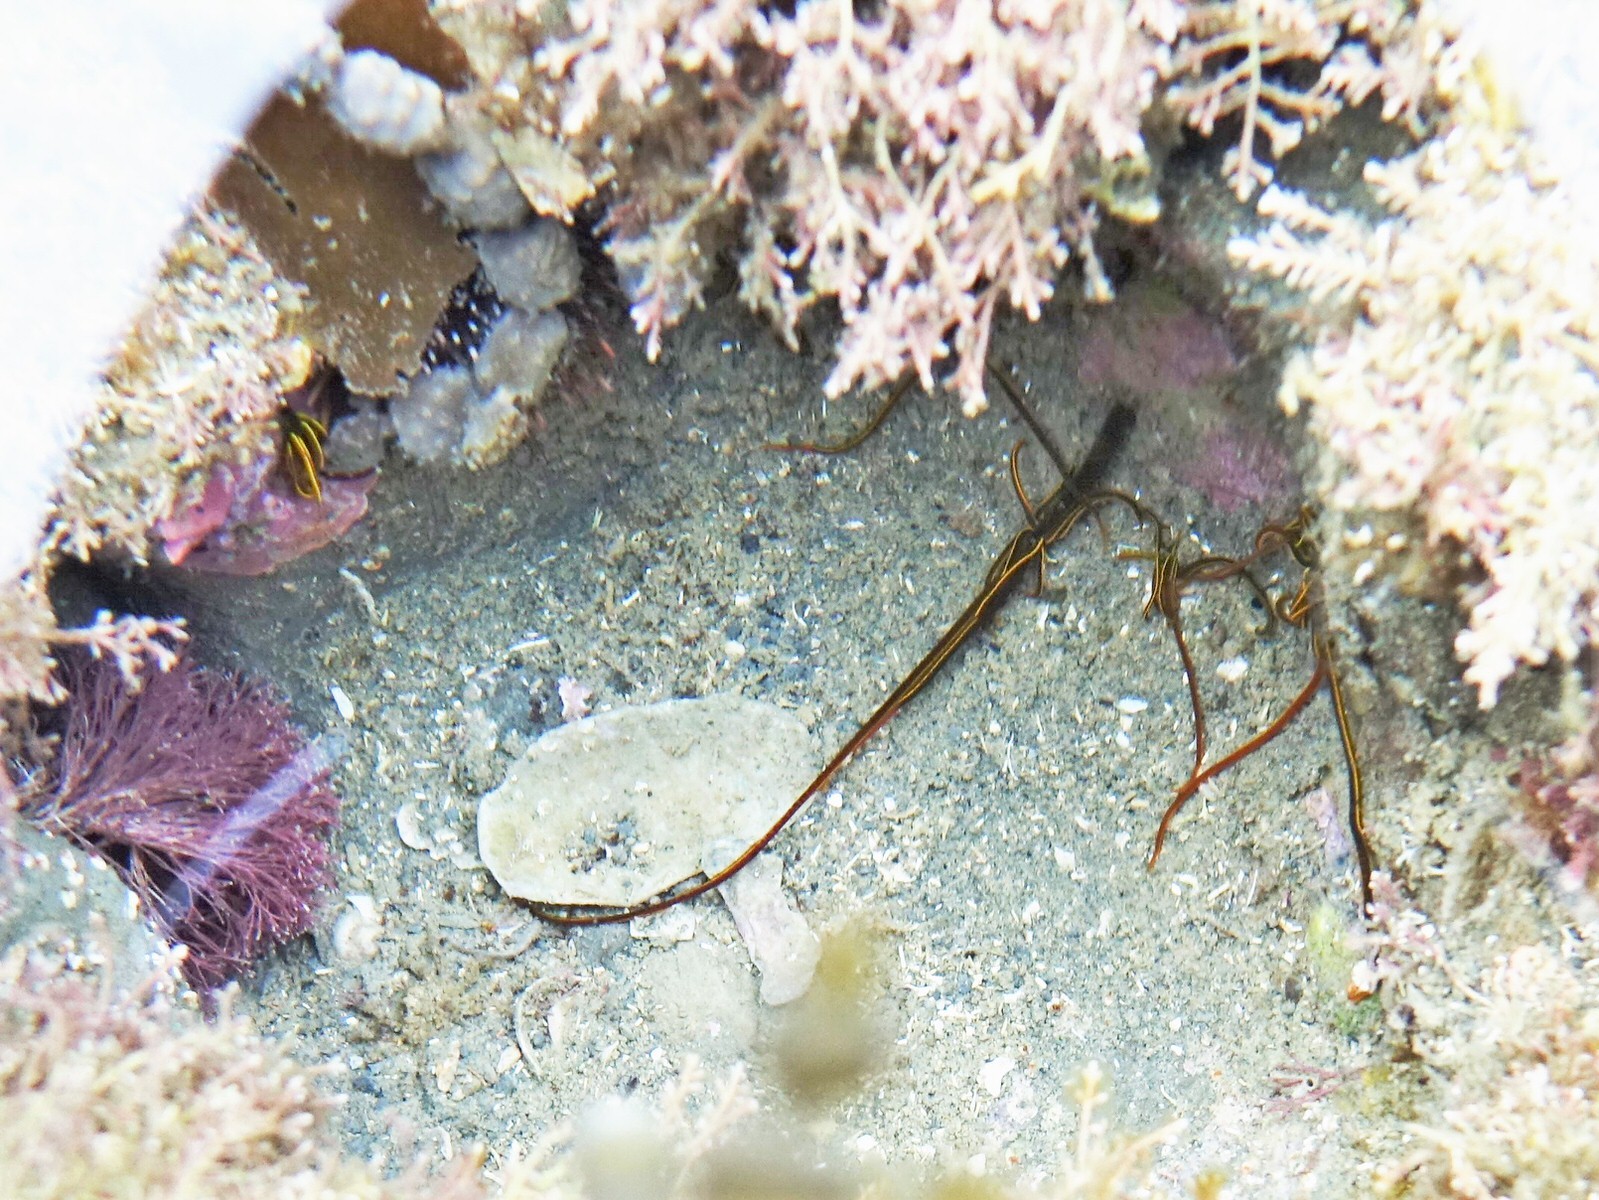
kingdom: Animalia
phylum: Annelida
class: Polychaeta
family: Acrocirridae
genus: Acrocirrus
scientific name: Acrocirrus
